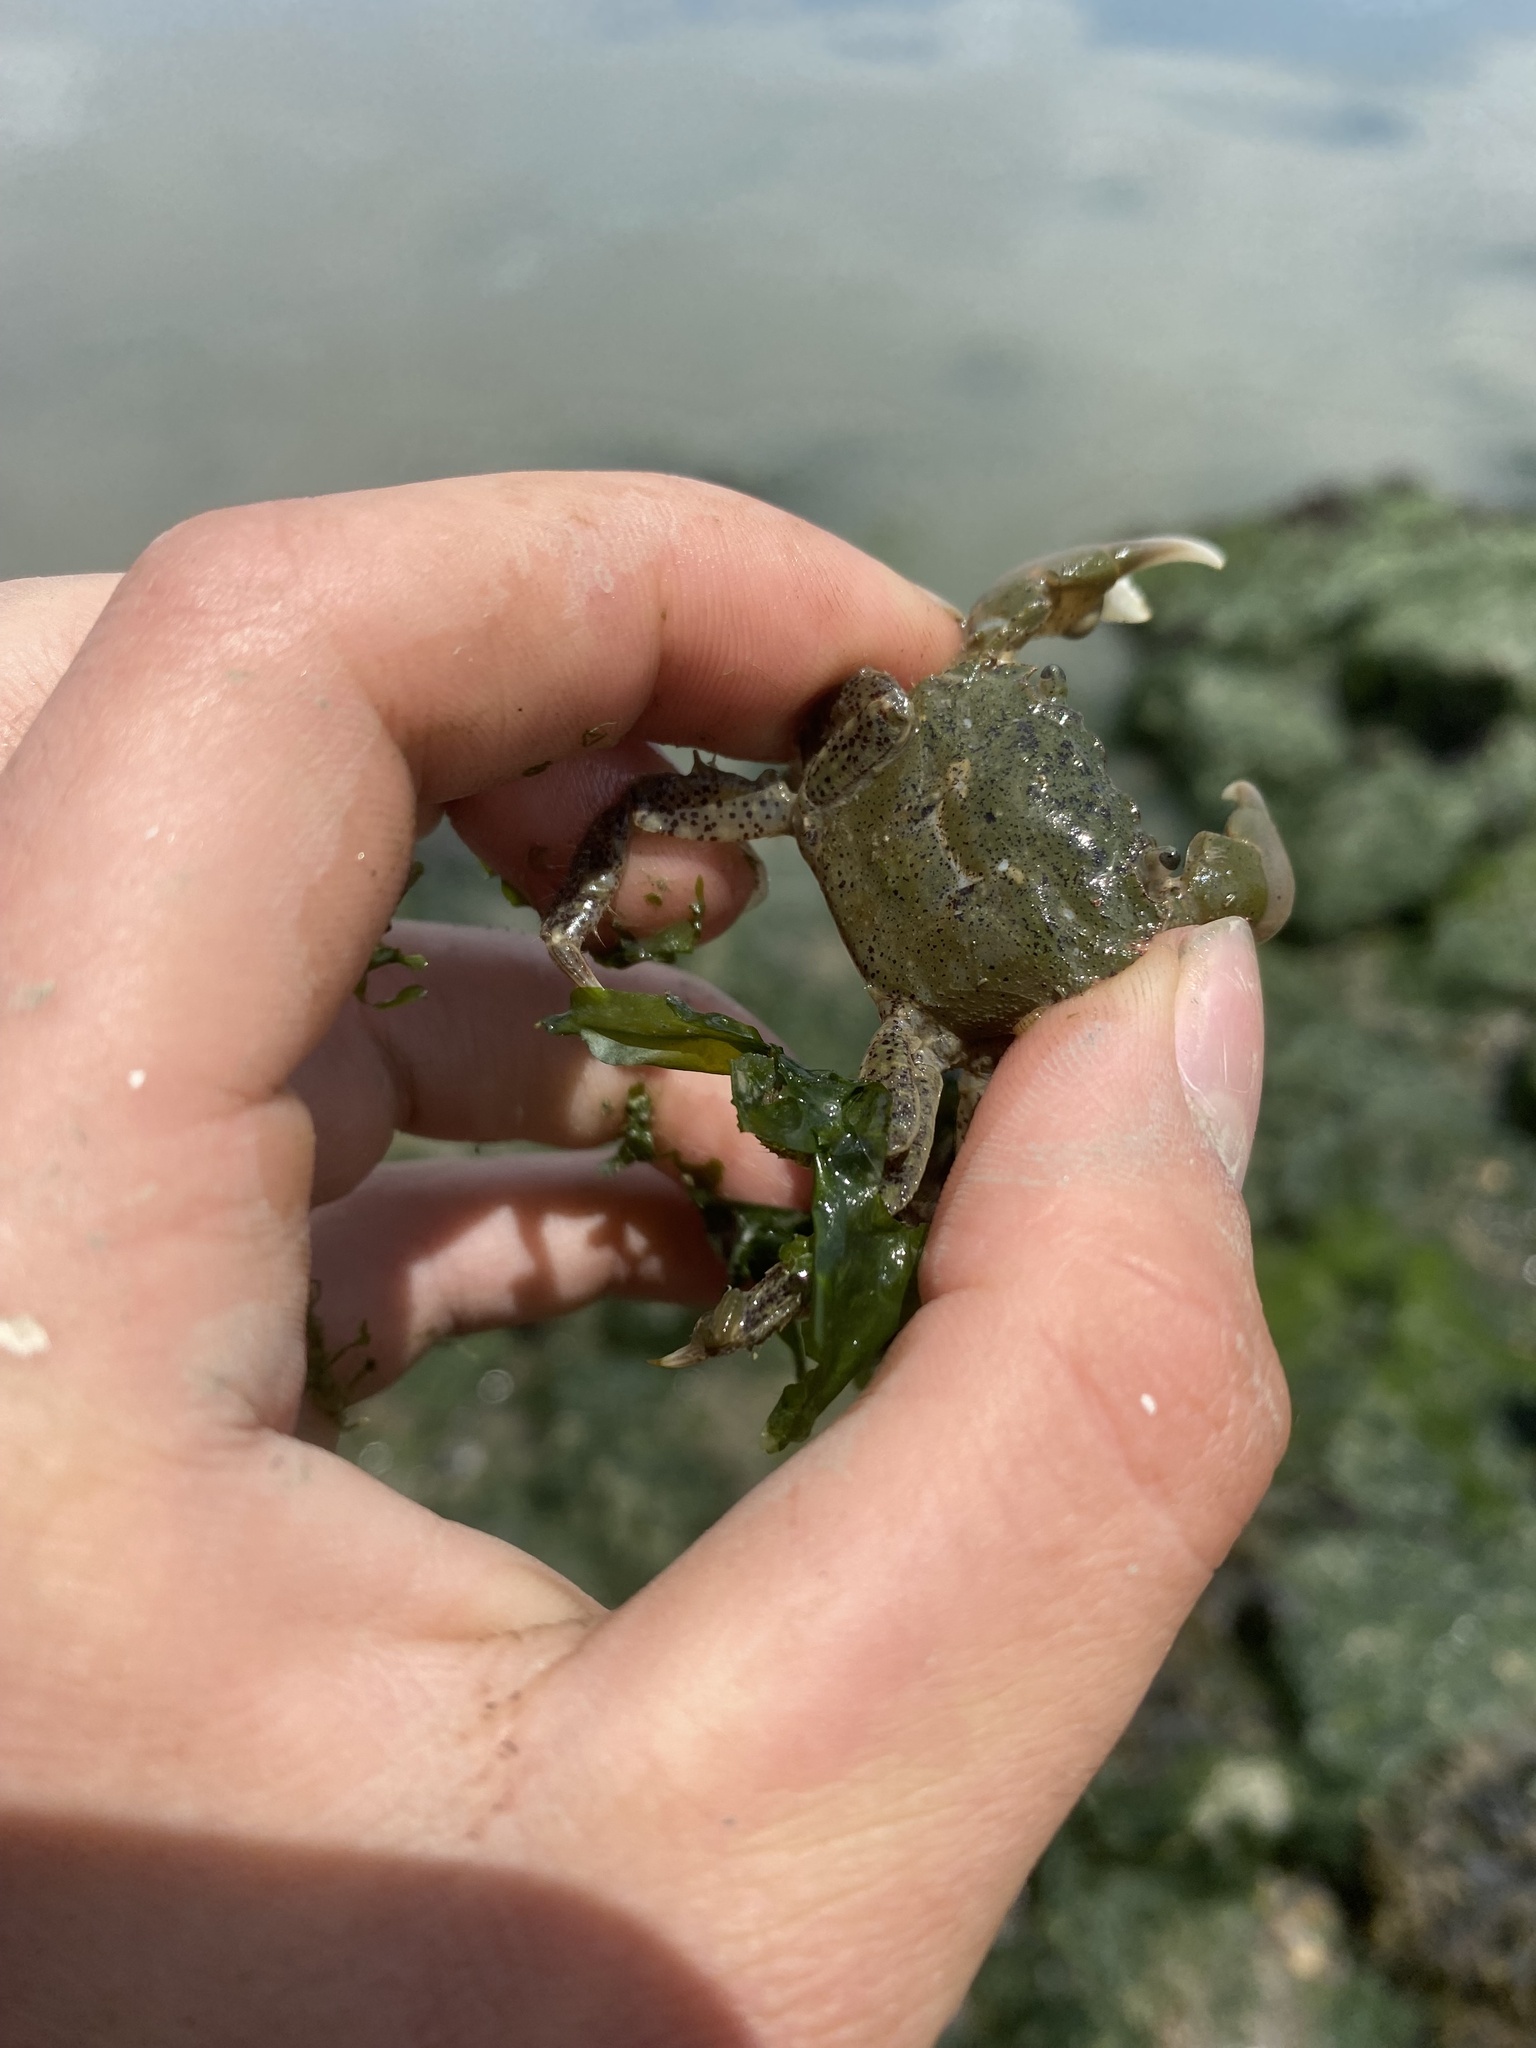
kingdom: Animalia
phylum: Arthropoda
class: Malacostraca
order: Decapoda
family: Varunidae
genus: Hemigrapsus
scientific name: Hemigrapsus oregonensis
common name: Yellow shore crab
